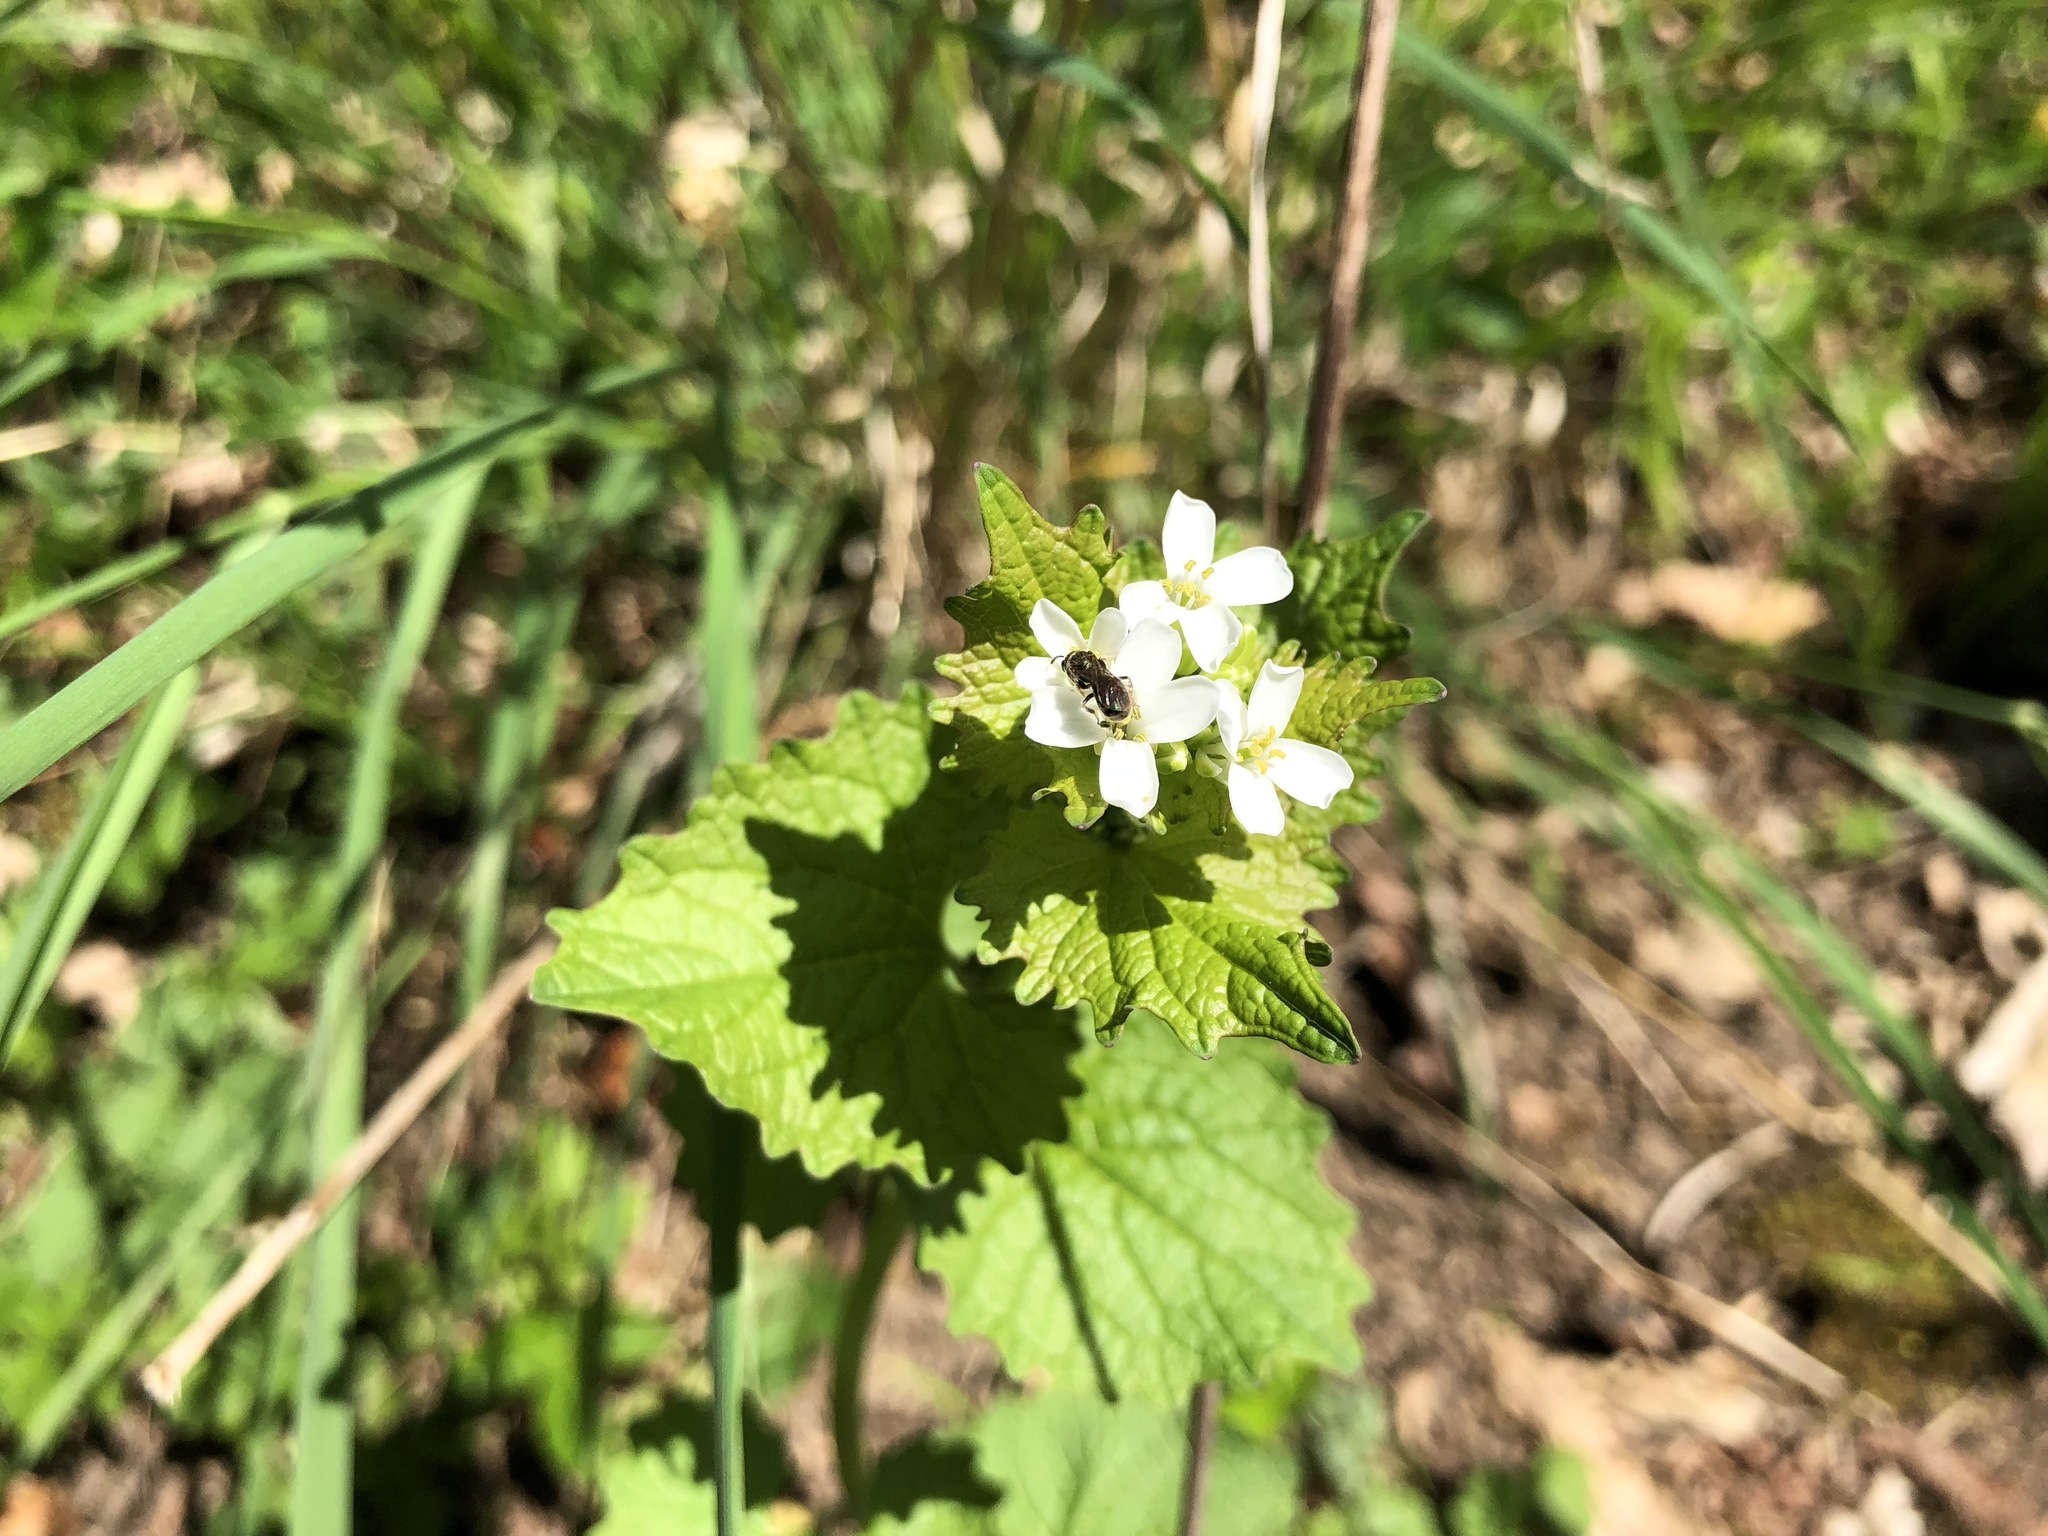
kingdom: Plantae
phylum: Tracheophyta
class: Magnoliopsida
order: Brassicales
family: Brassicaceae
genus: Alliaria
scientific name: Alliaria petiolata
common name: Garlic mustard
